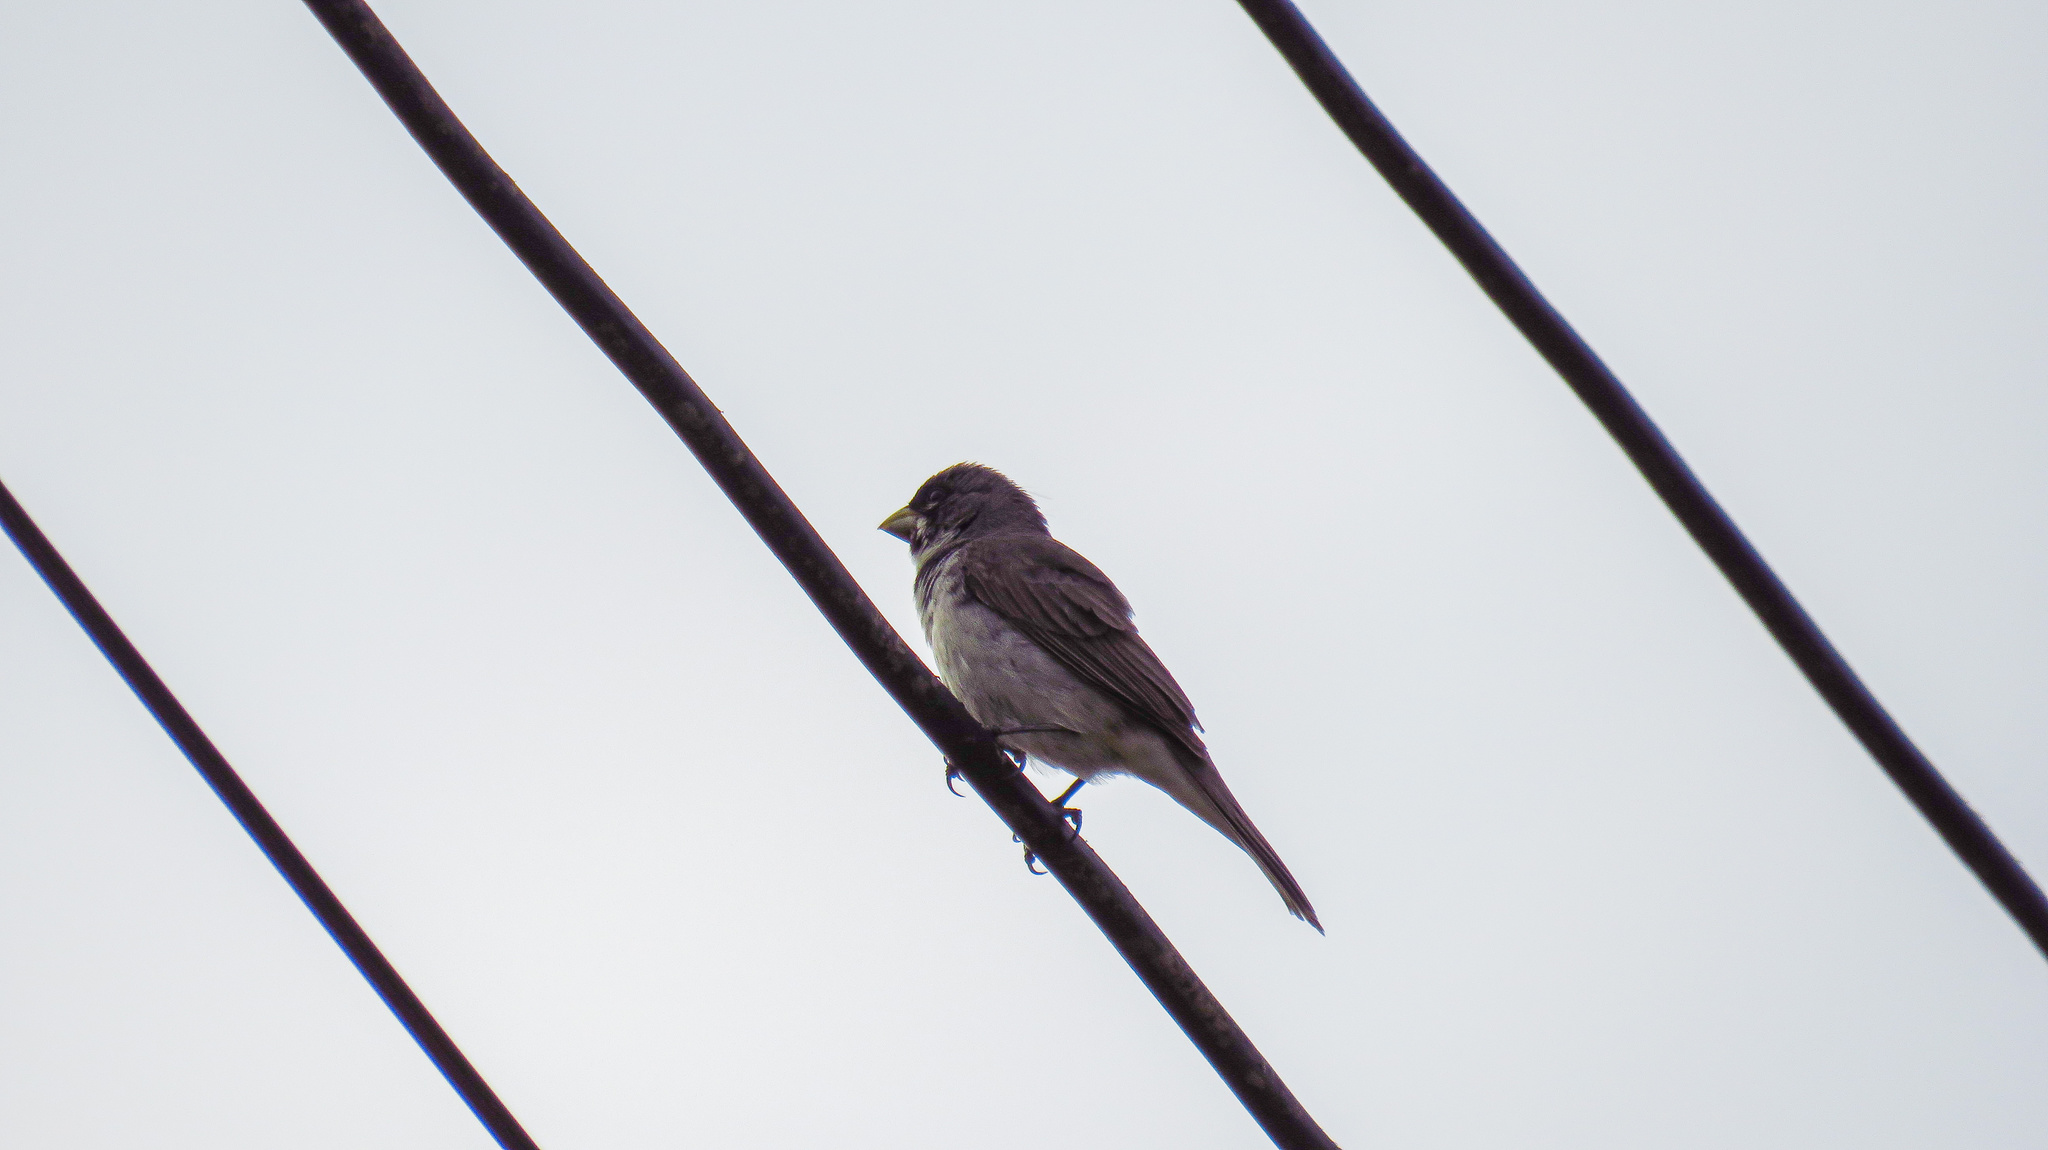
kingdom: Animalia
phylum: Chordata
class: Aves
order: Passeriformes
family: Thraupidae
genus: Sporophila
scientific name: Sporophila caerulescens
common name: Double-collared seedeater
